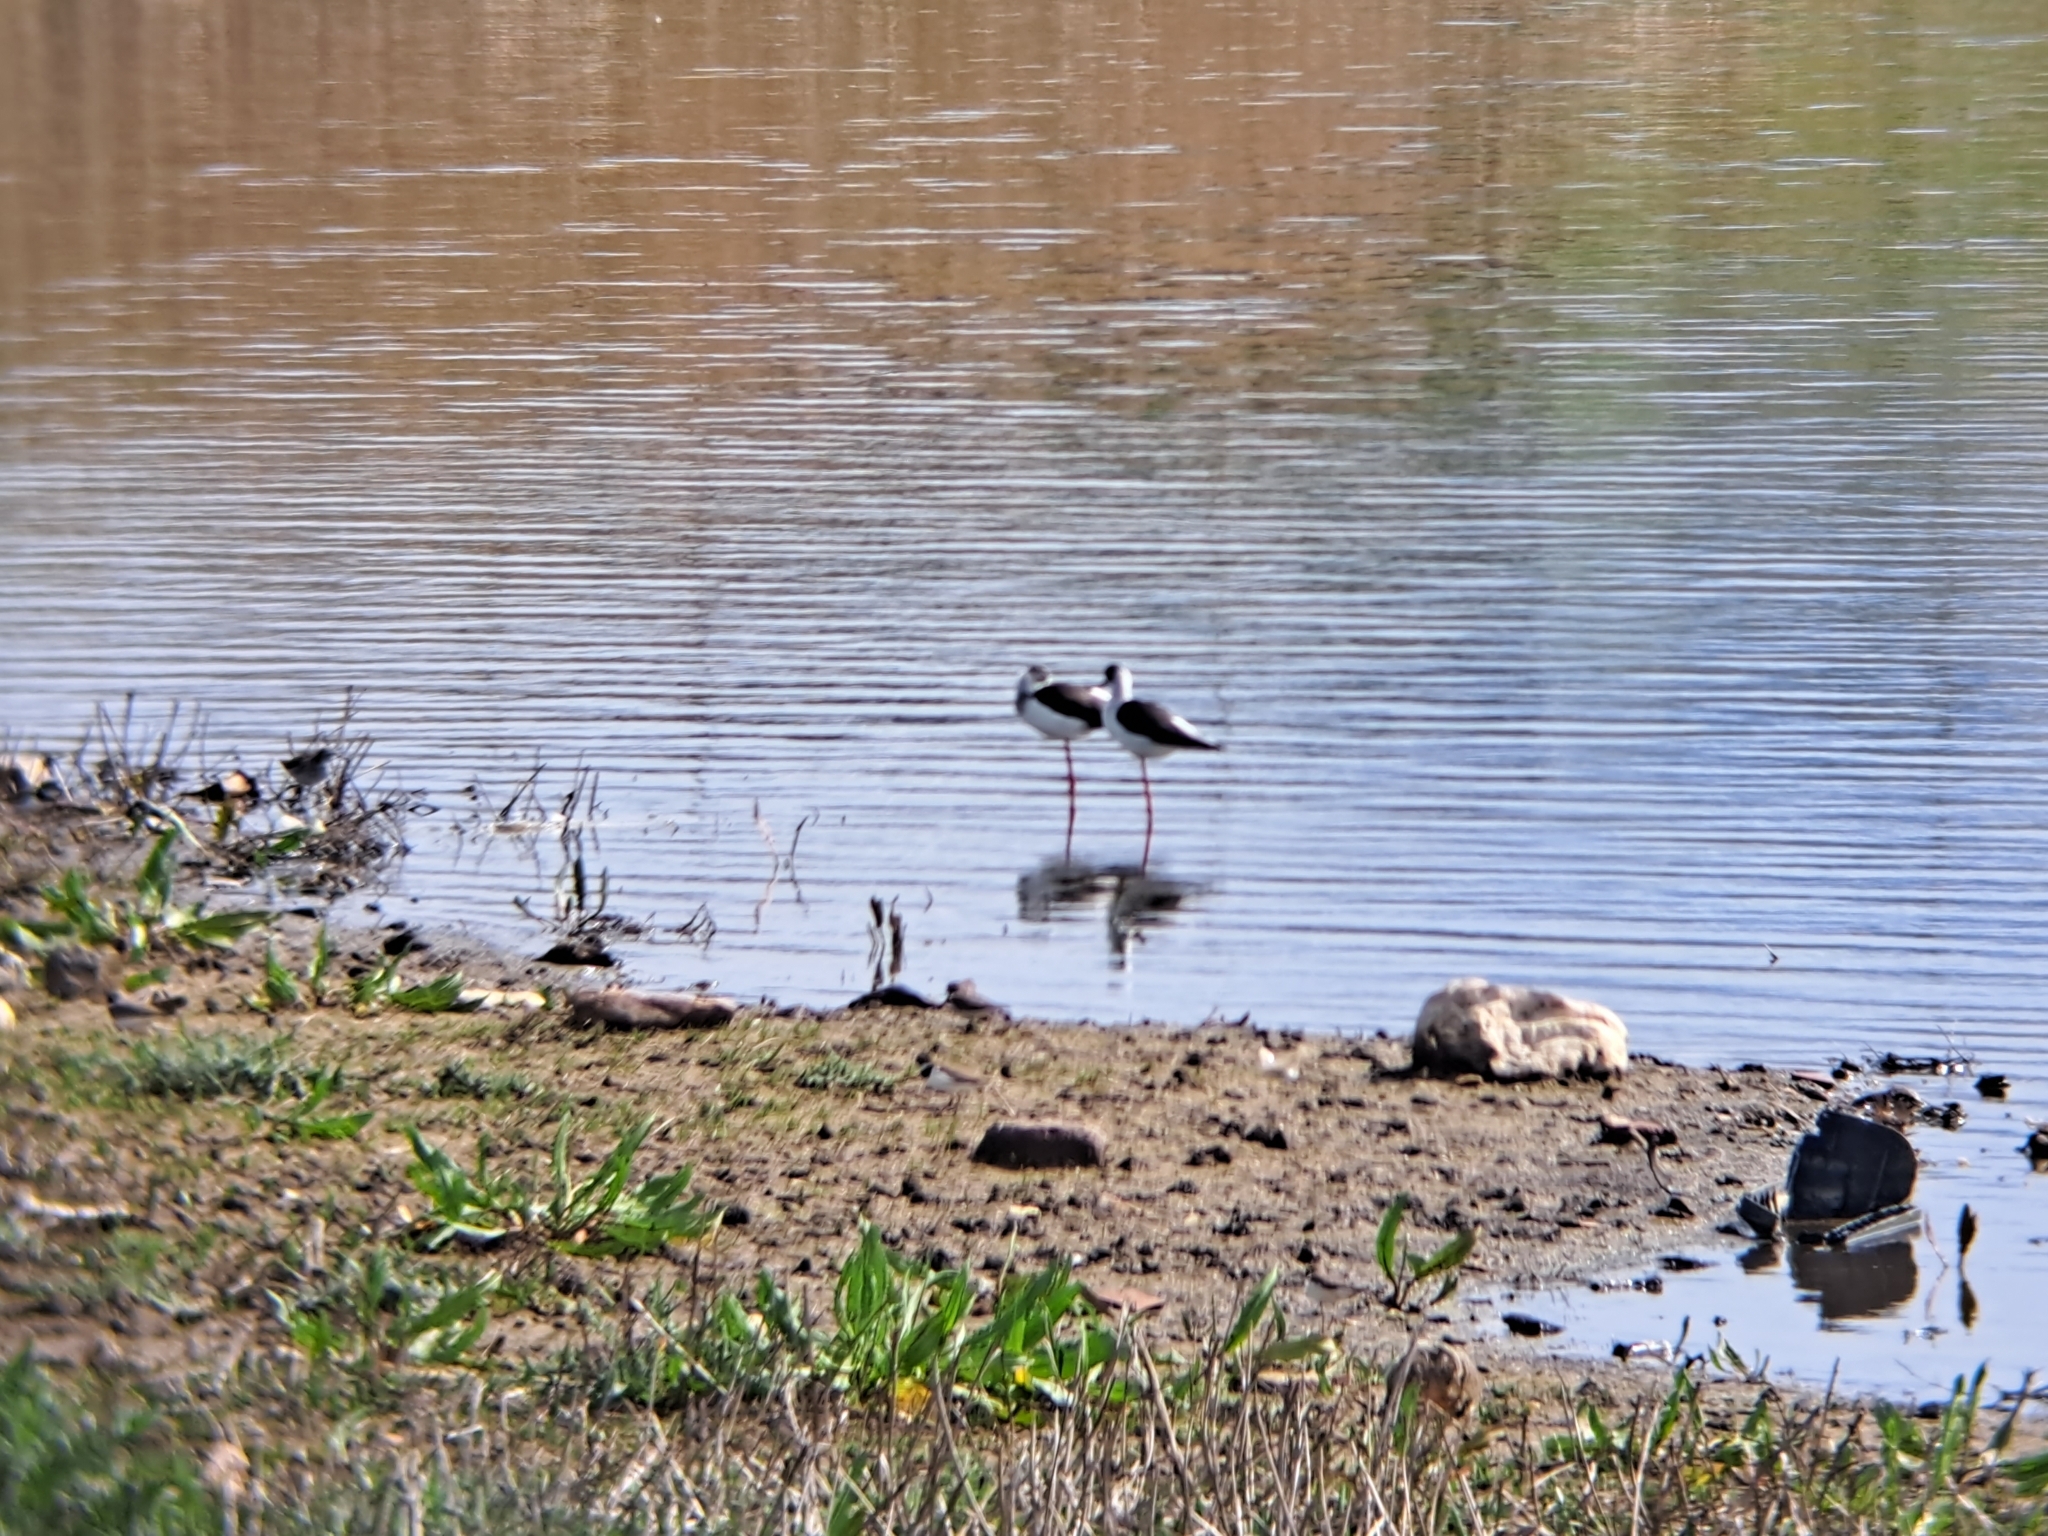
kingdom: Animalia
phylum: Chordata
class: Aves
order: Charadriiformes
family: Recurvirostridae
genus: Himantopus
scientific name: Himantopus himantopus
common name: Black-winged stilt
